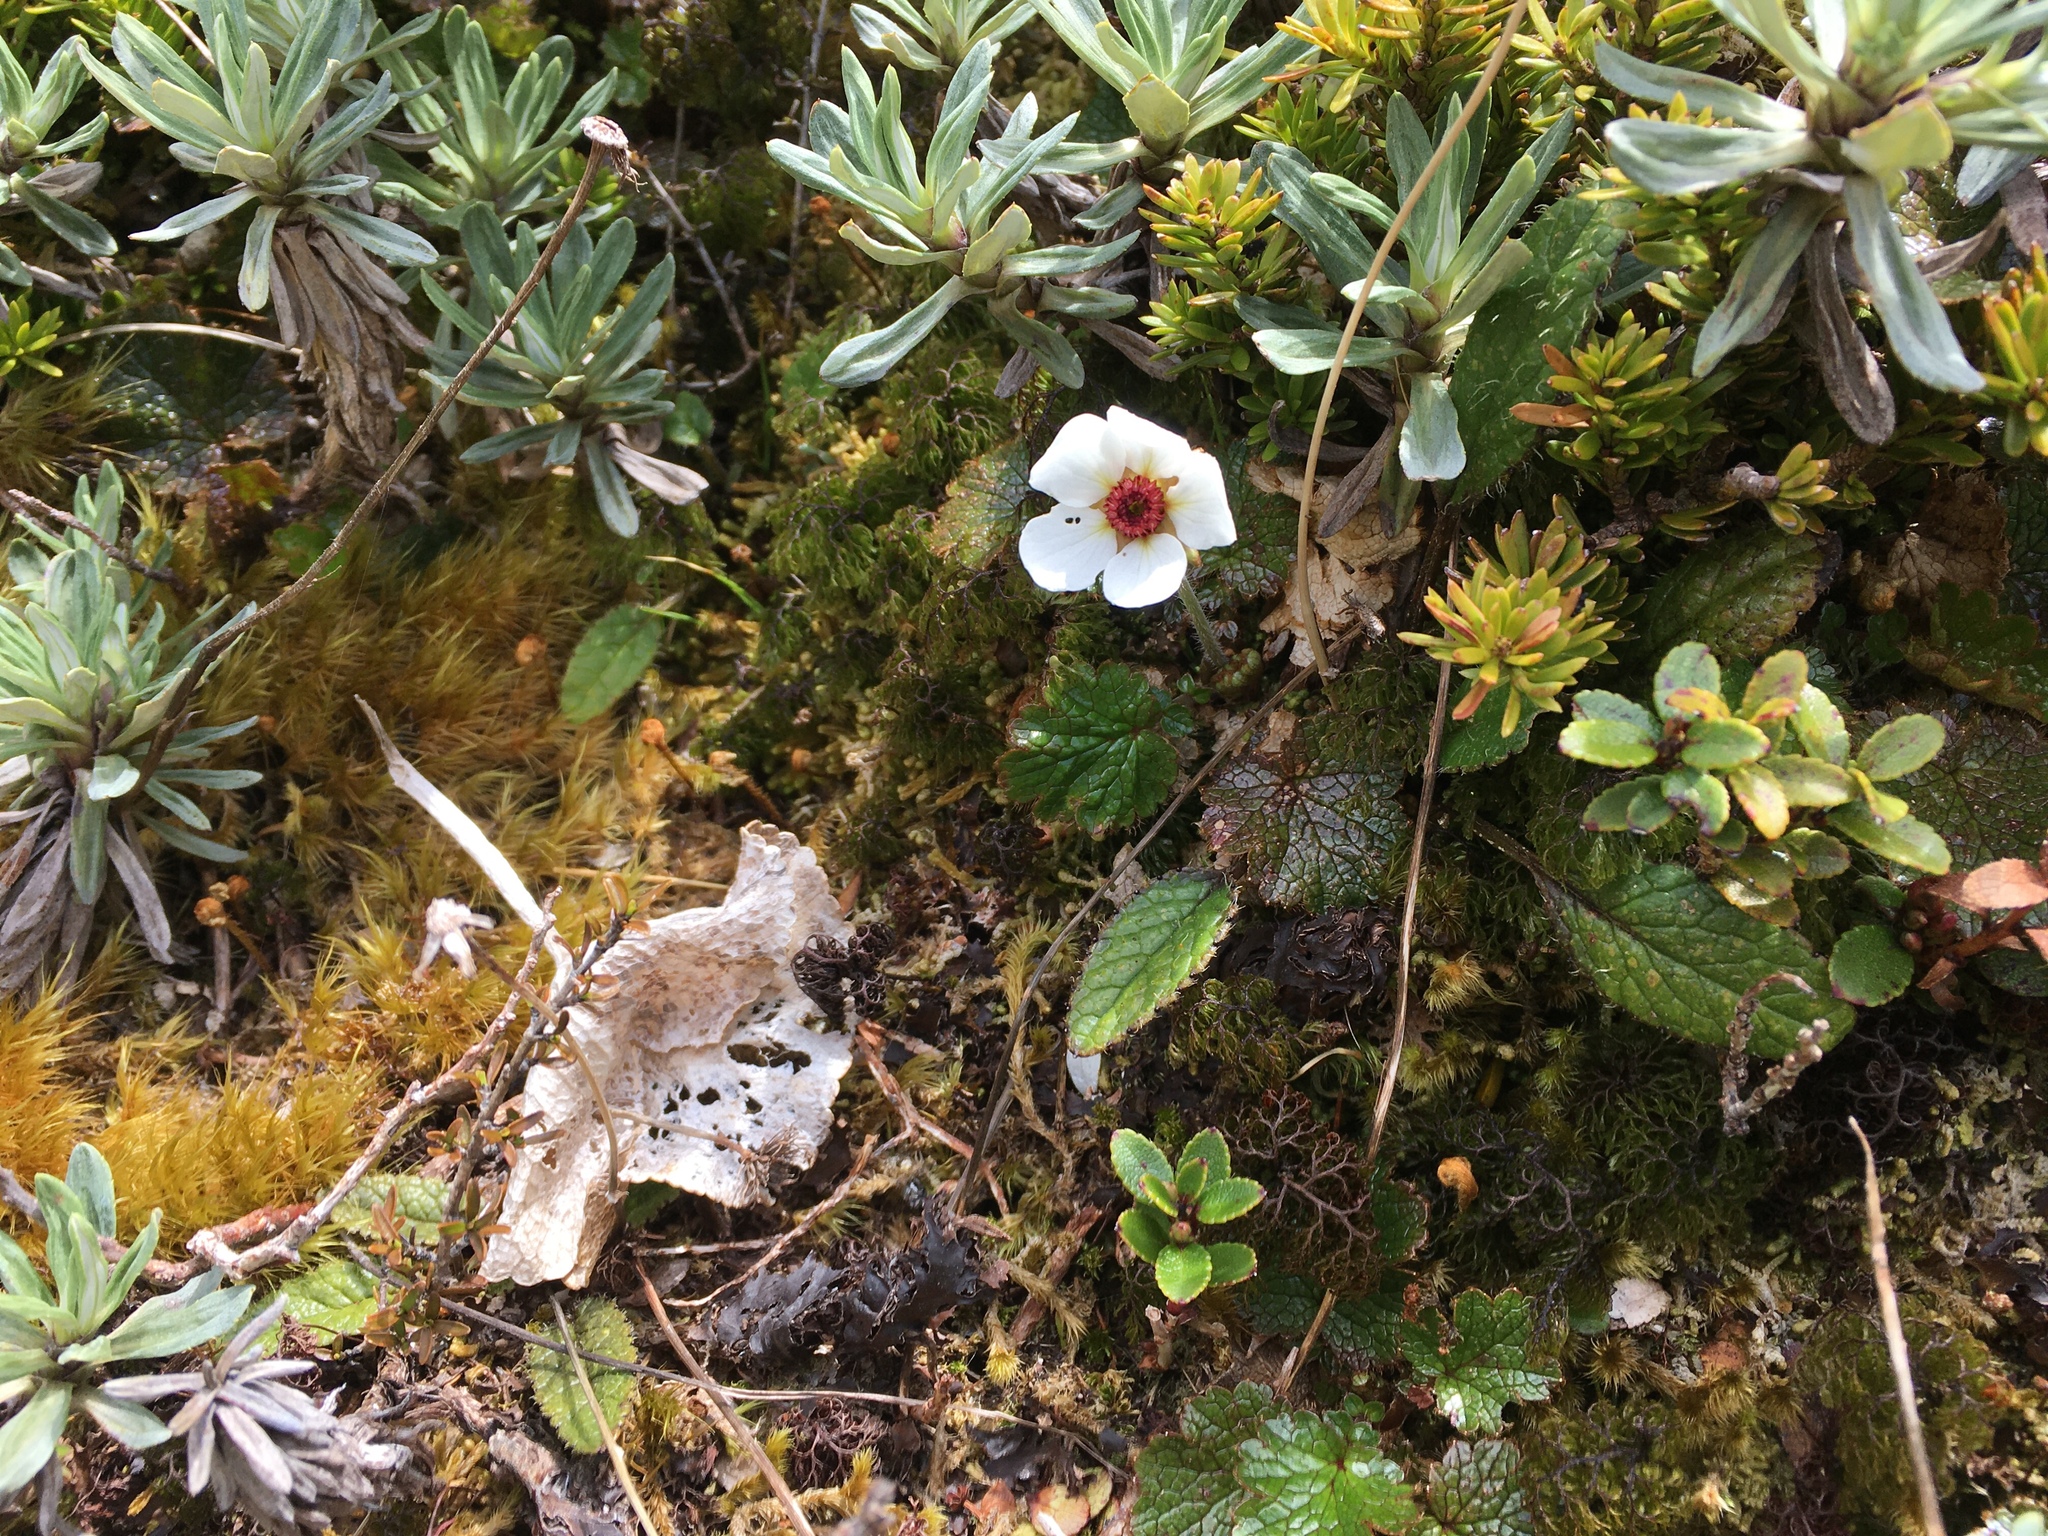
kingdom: Plantae
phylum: Tracheophyta
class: Magnoliopsida
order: Rosales
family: Rosaceae
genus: Geum
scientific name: Geum uniflorum
